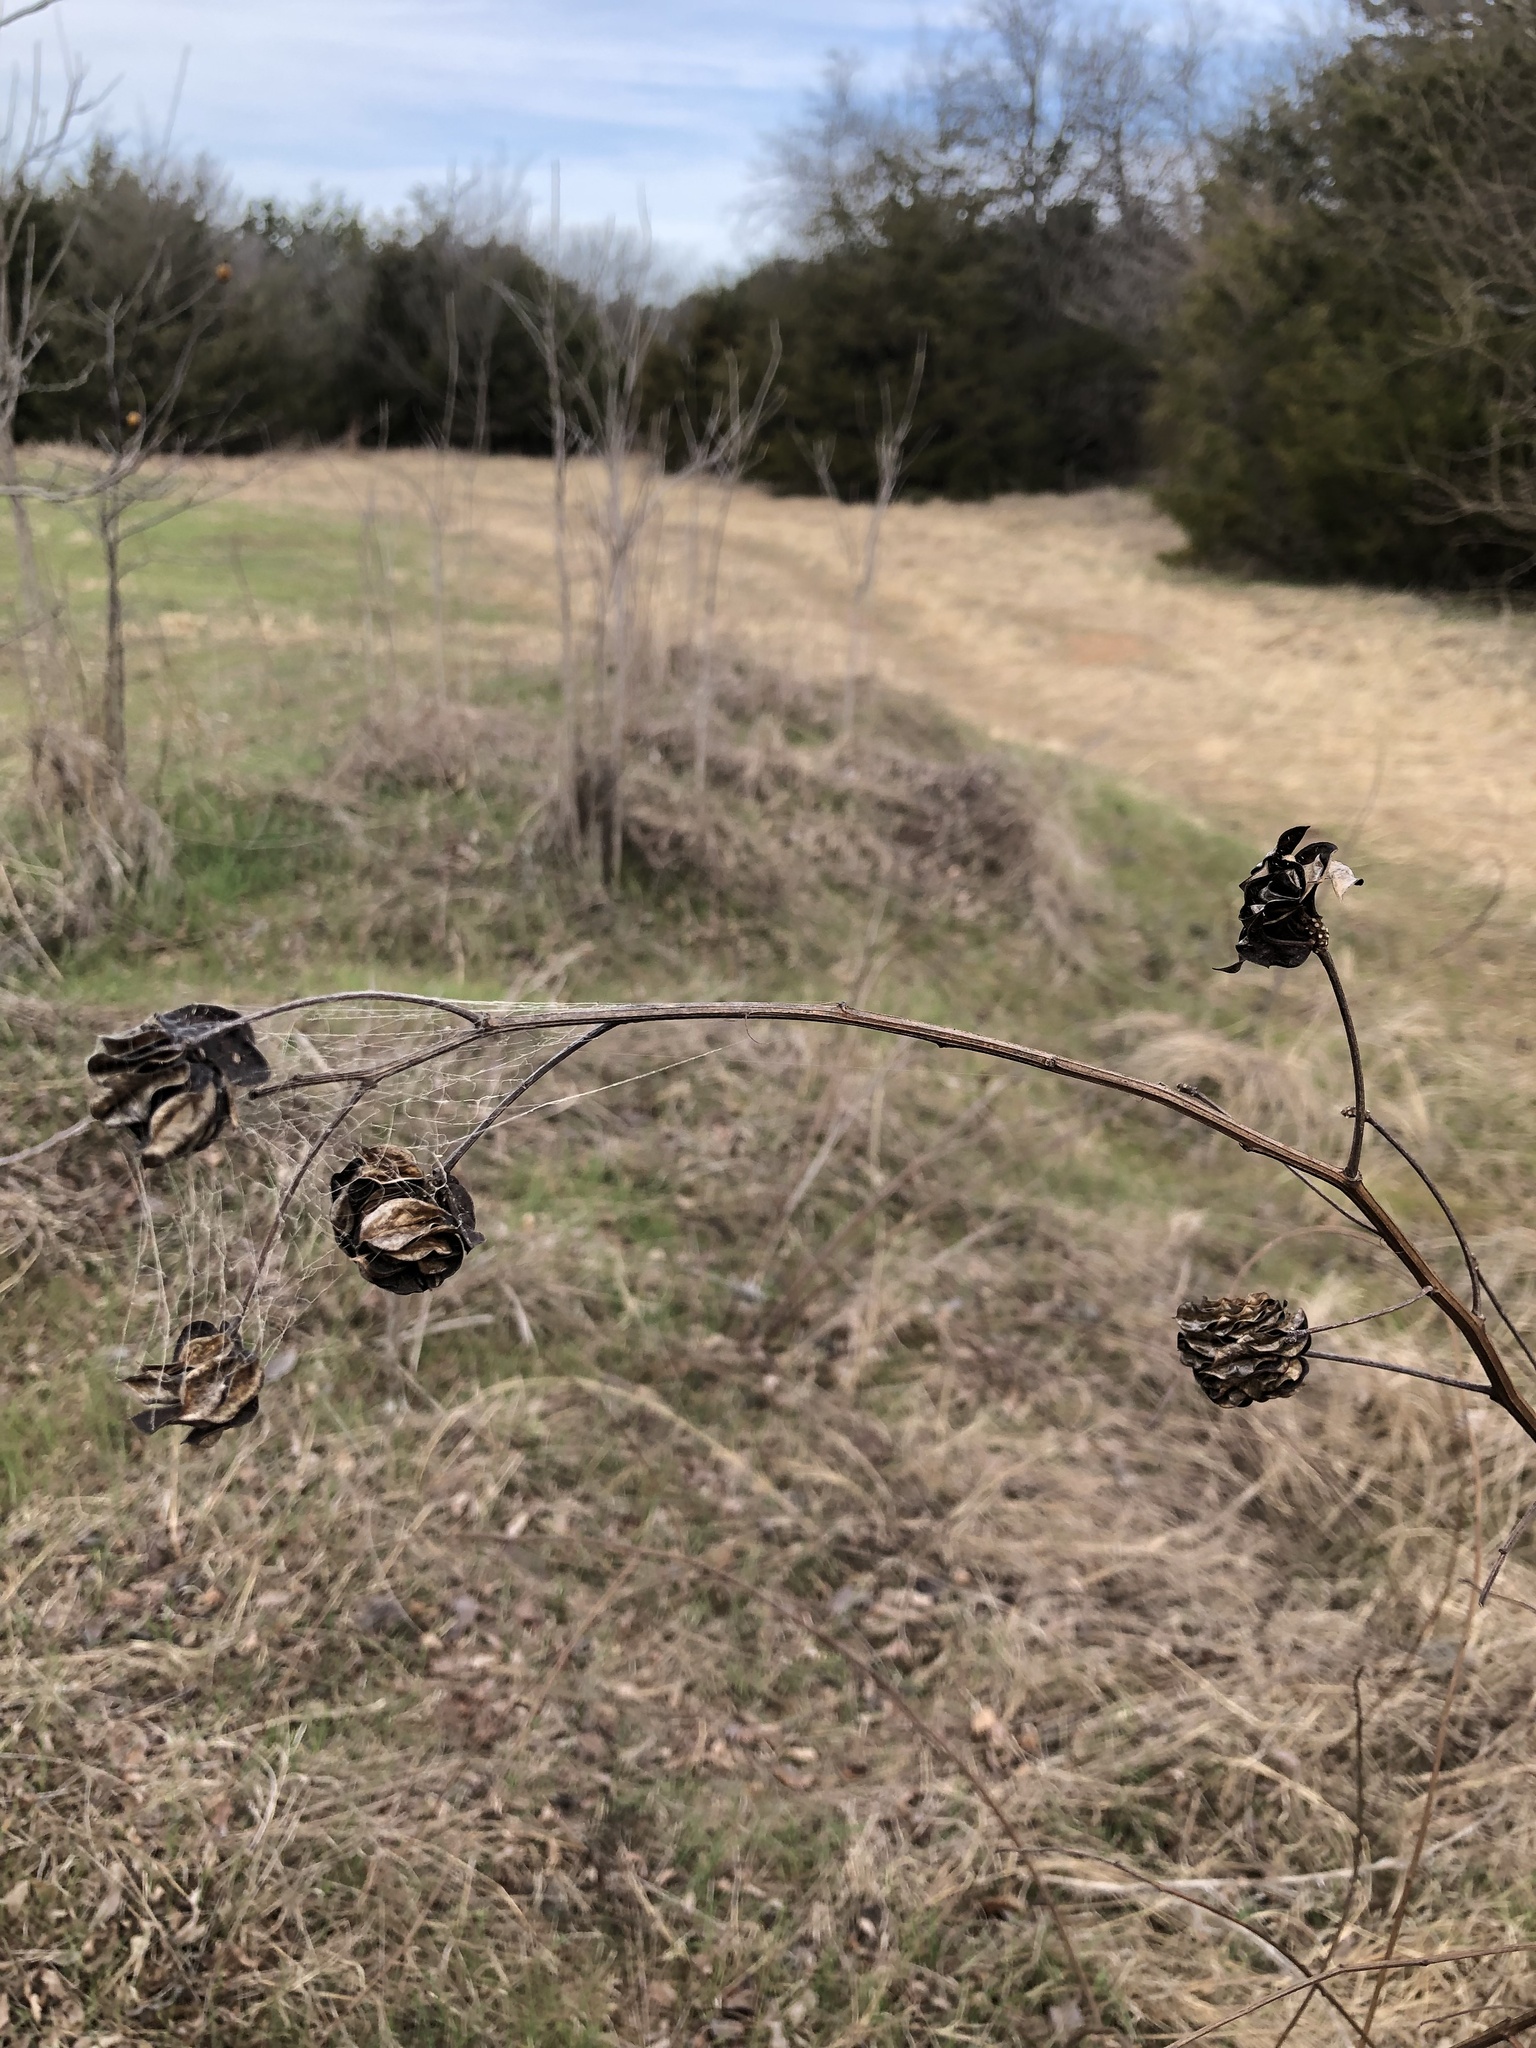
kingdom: Plantae
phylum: Tracheophyta
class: Magnoliopsida
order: Fabales
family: Fabaceae
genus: Desmanthus
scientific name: Desmanthus illinoensis
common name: Illinois bundle-flower
